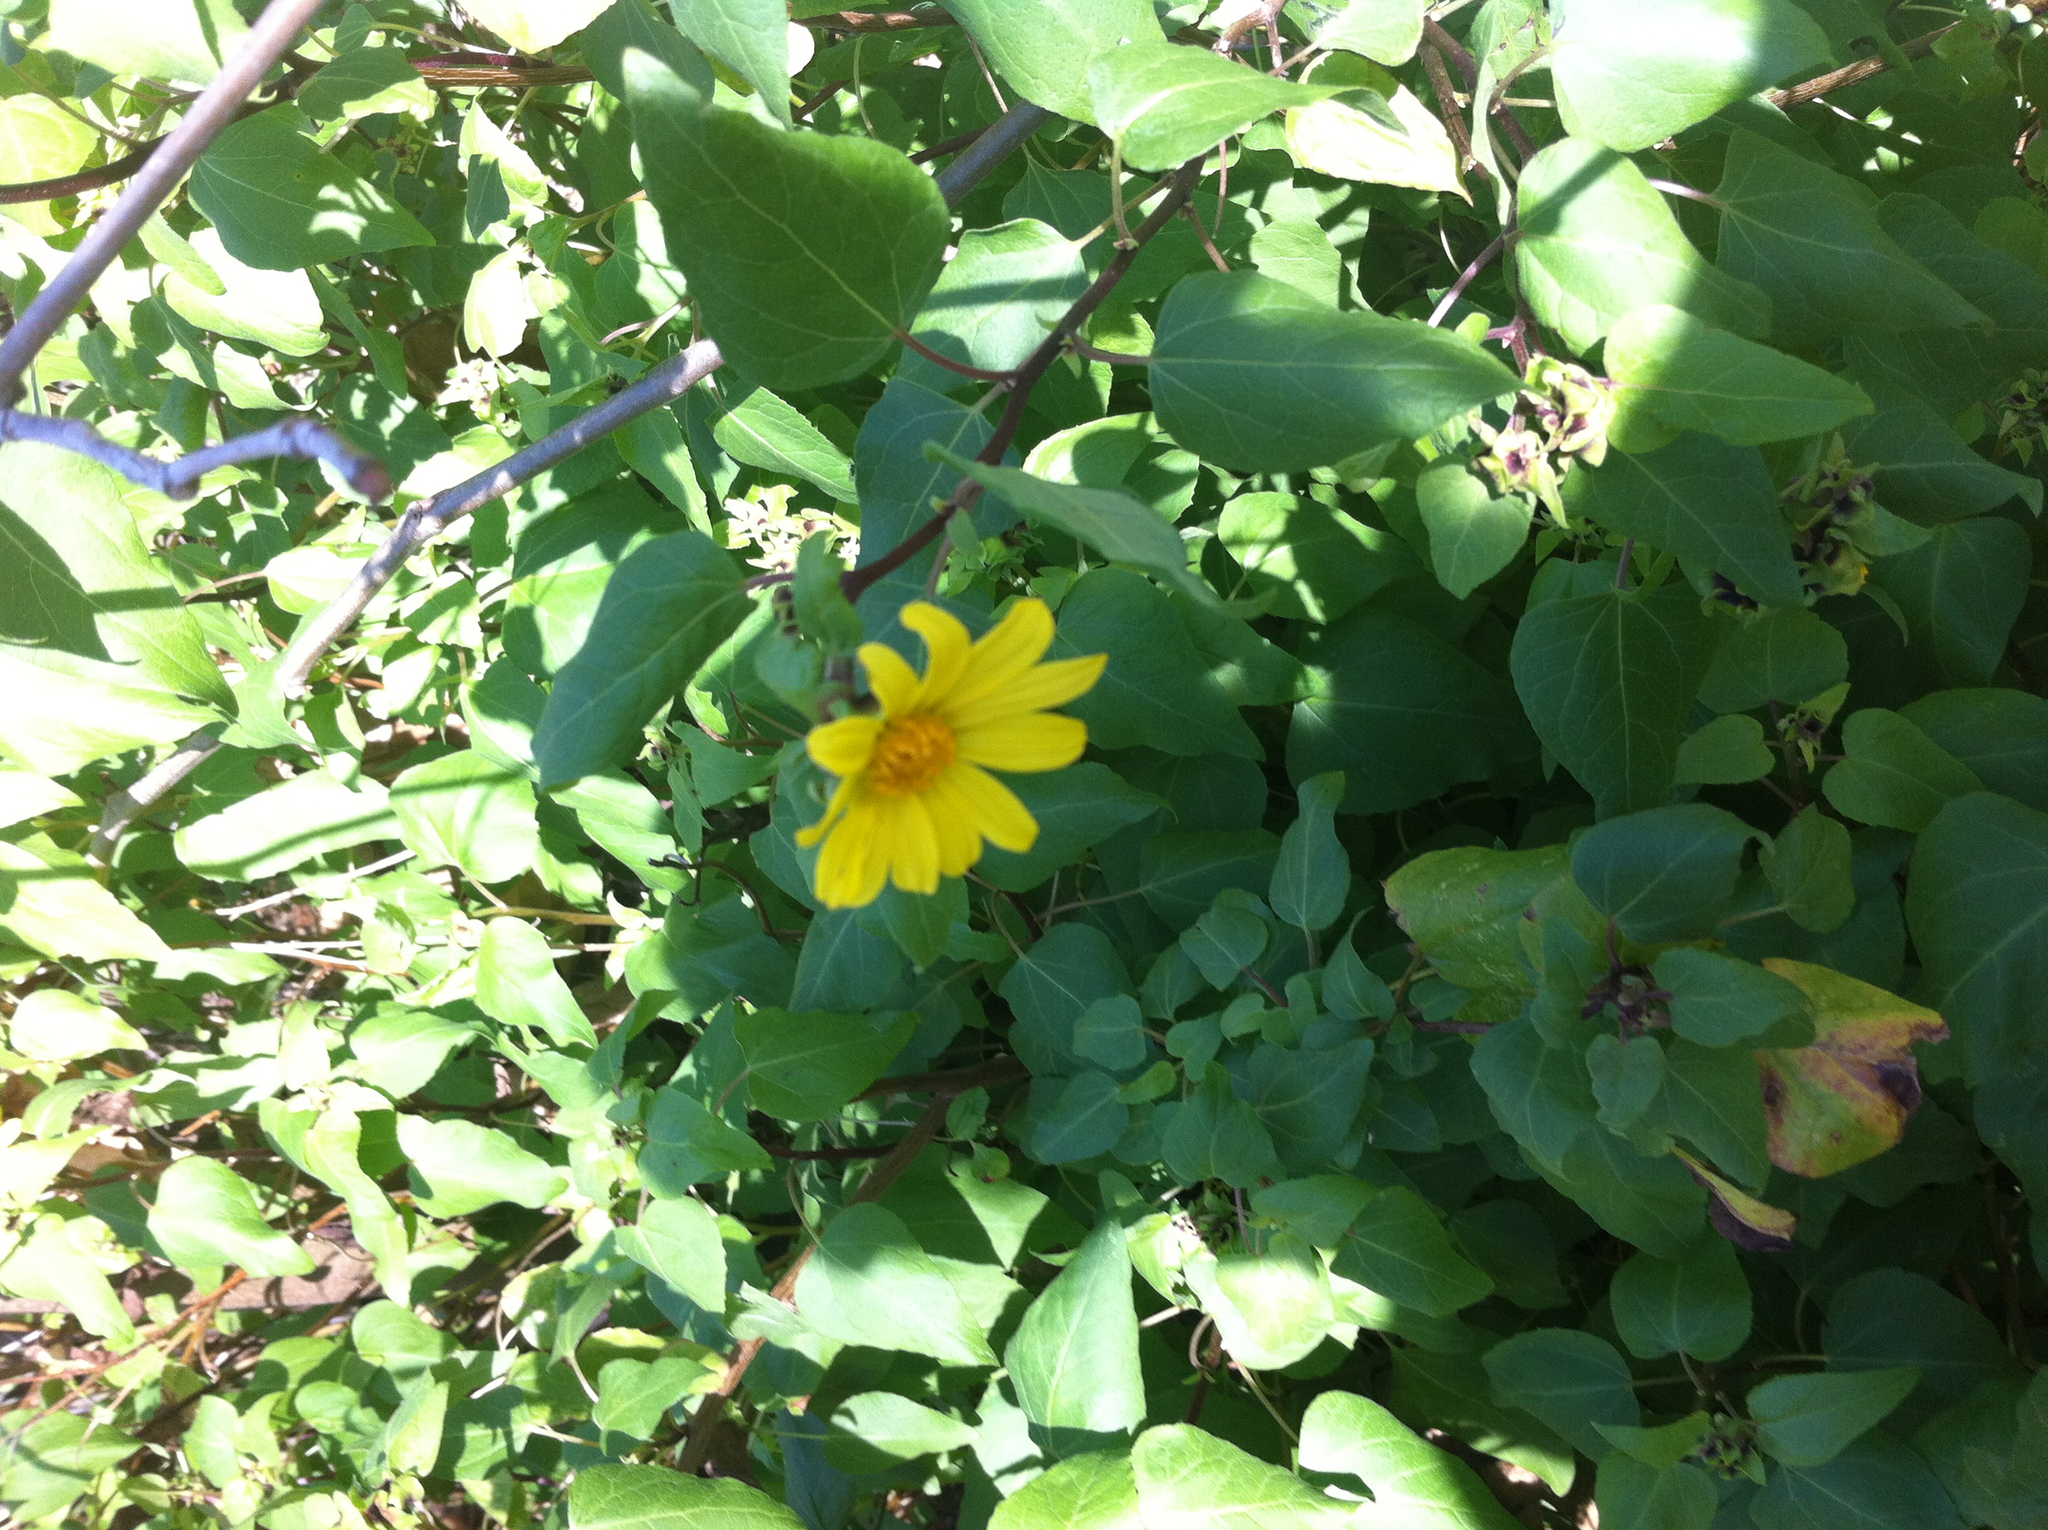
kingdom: Plantae
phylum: Tracheophyta
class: Magnoliopsida
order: Asterales
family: Asteraceae
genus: Venegasia
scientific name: Venegasia carpesioides
